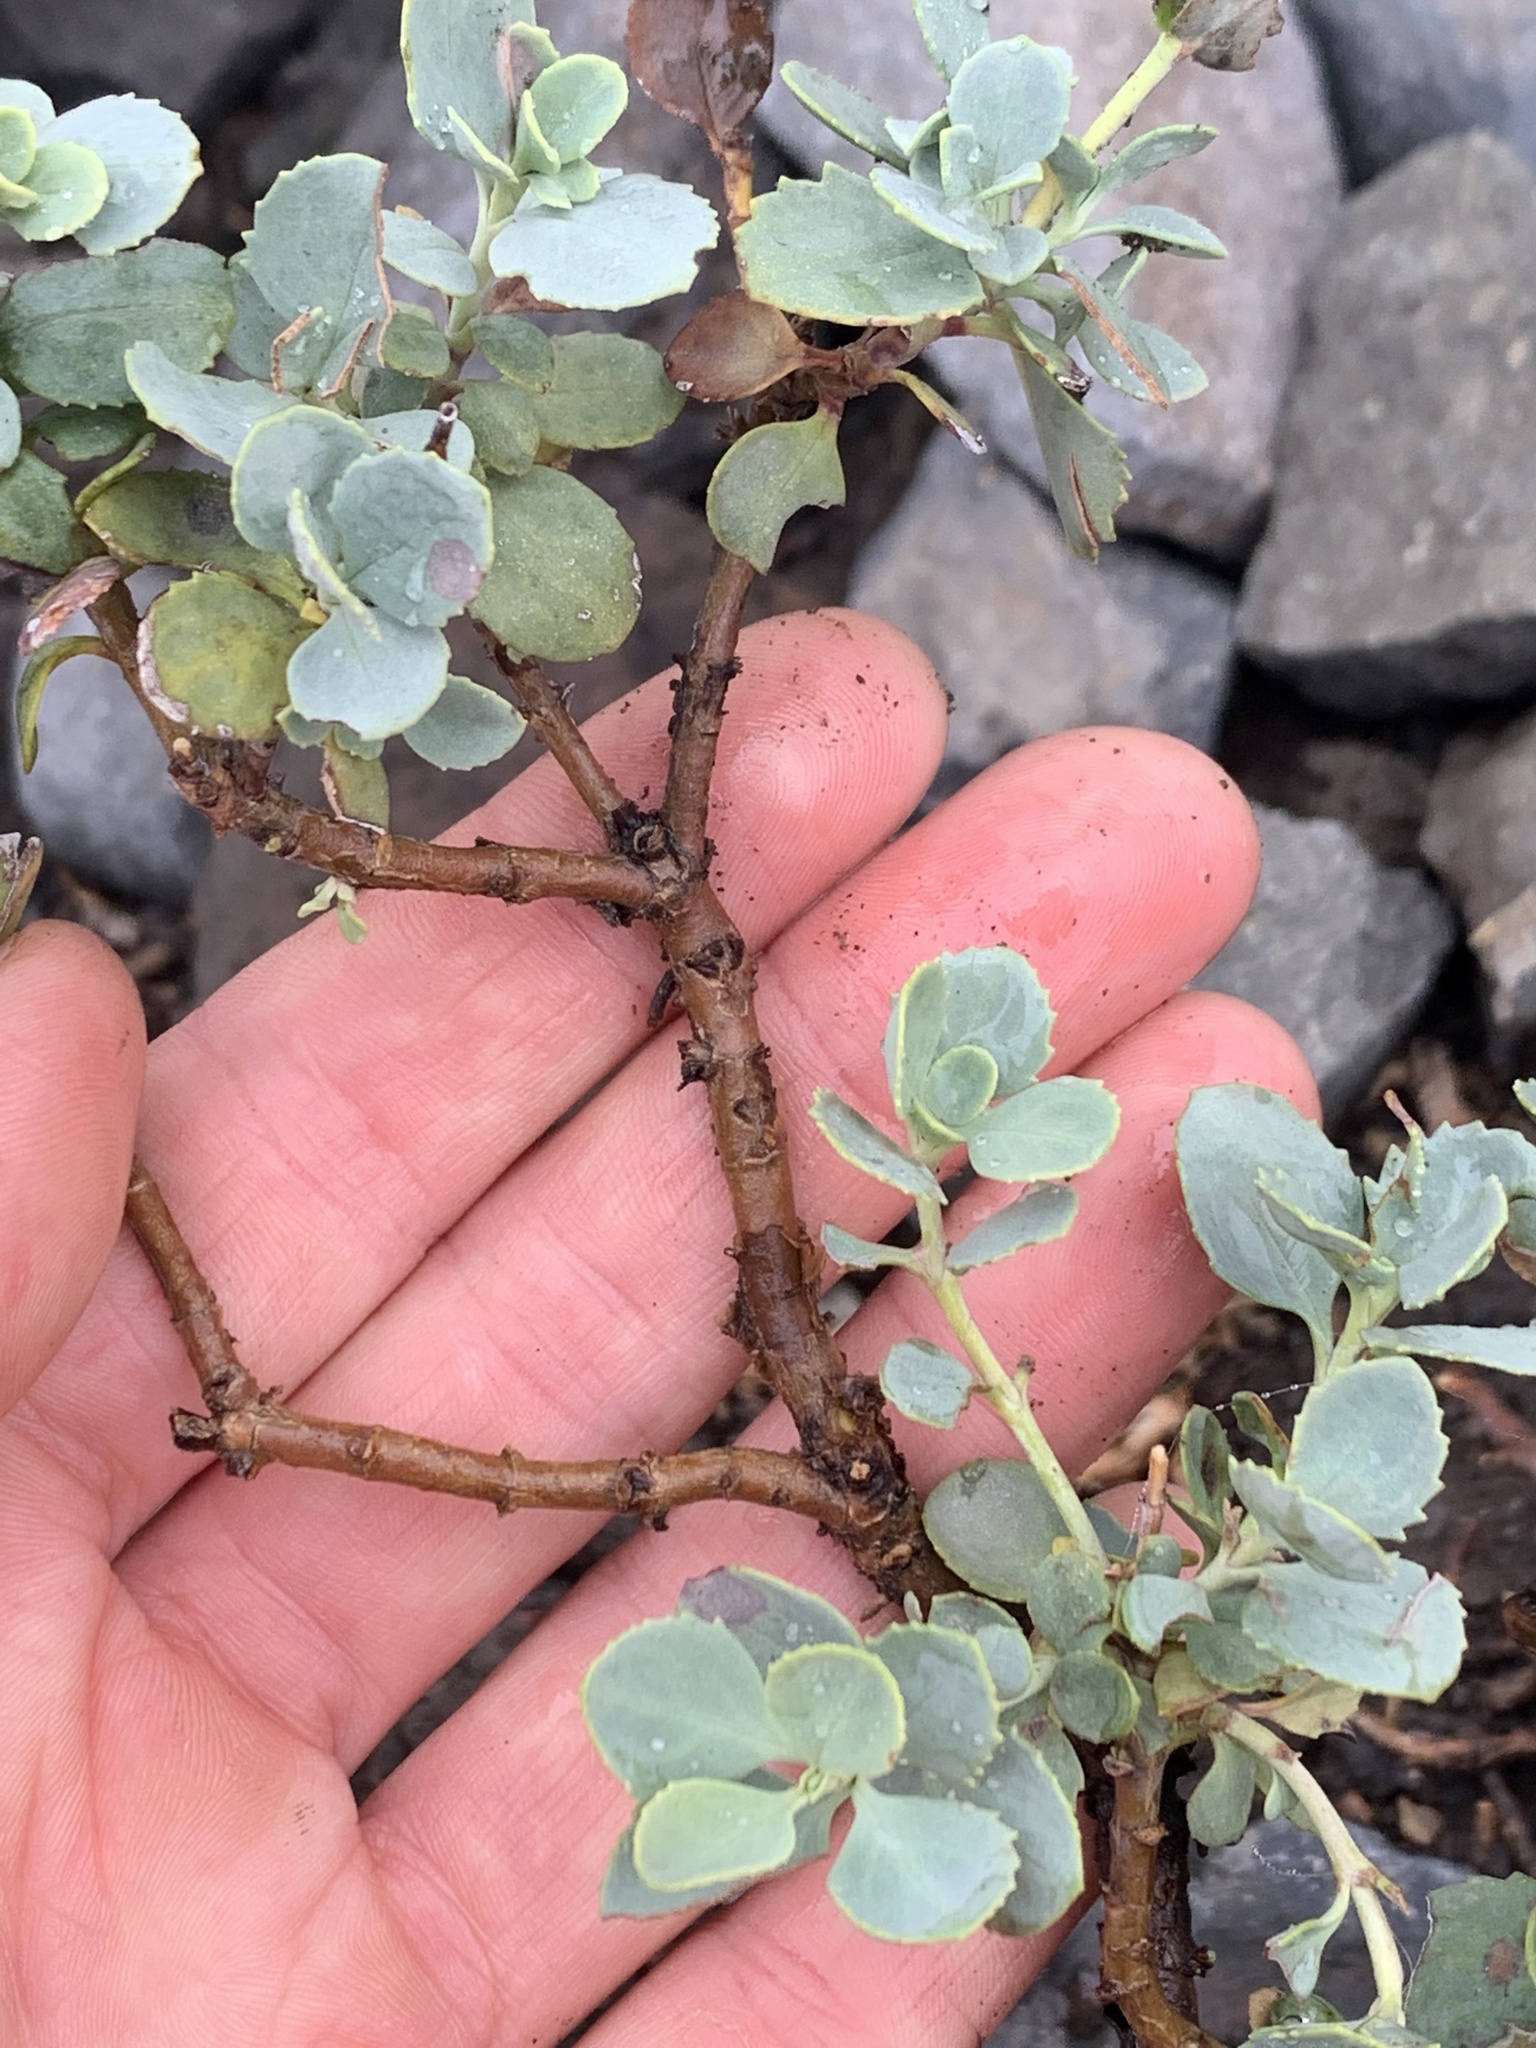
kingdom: Plantae
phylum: Tracheophyta
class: Magnoliopsida
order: Lamiales
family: Plantaginaceae
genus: Penstemon
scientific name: Penstemon rupicola
